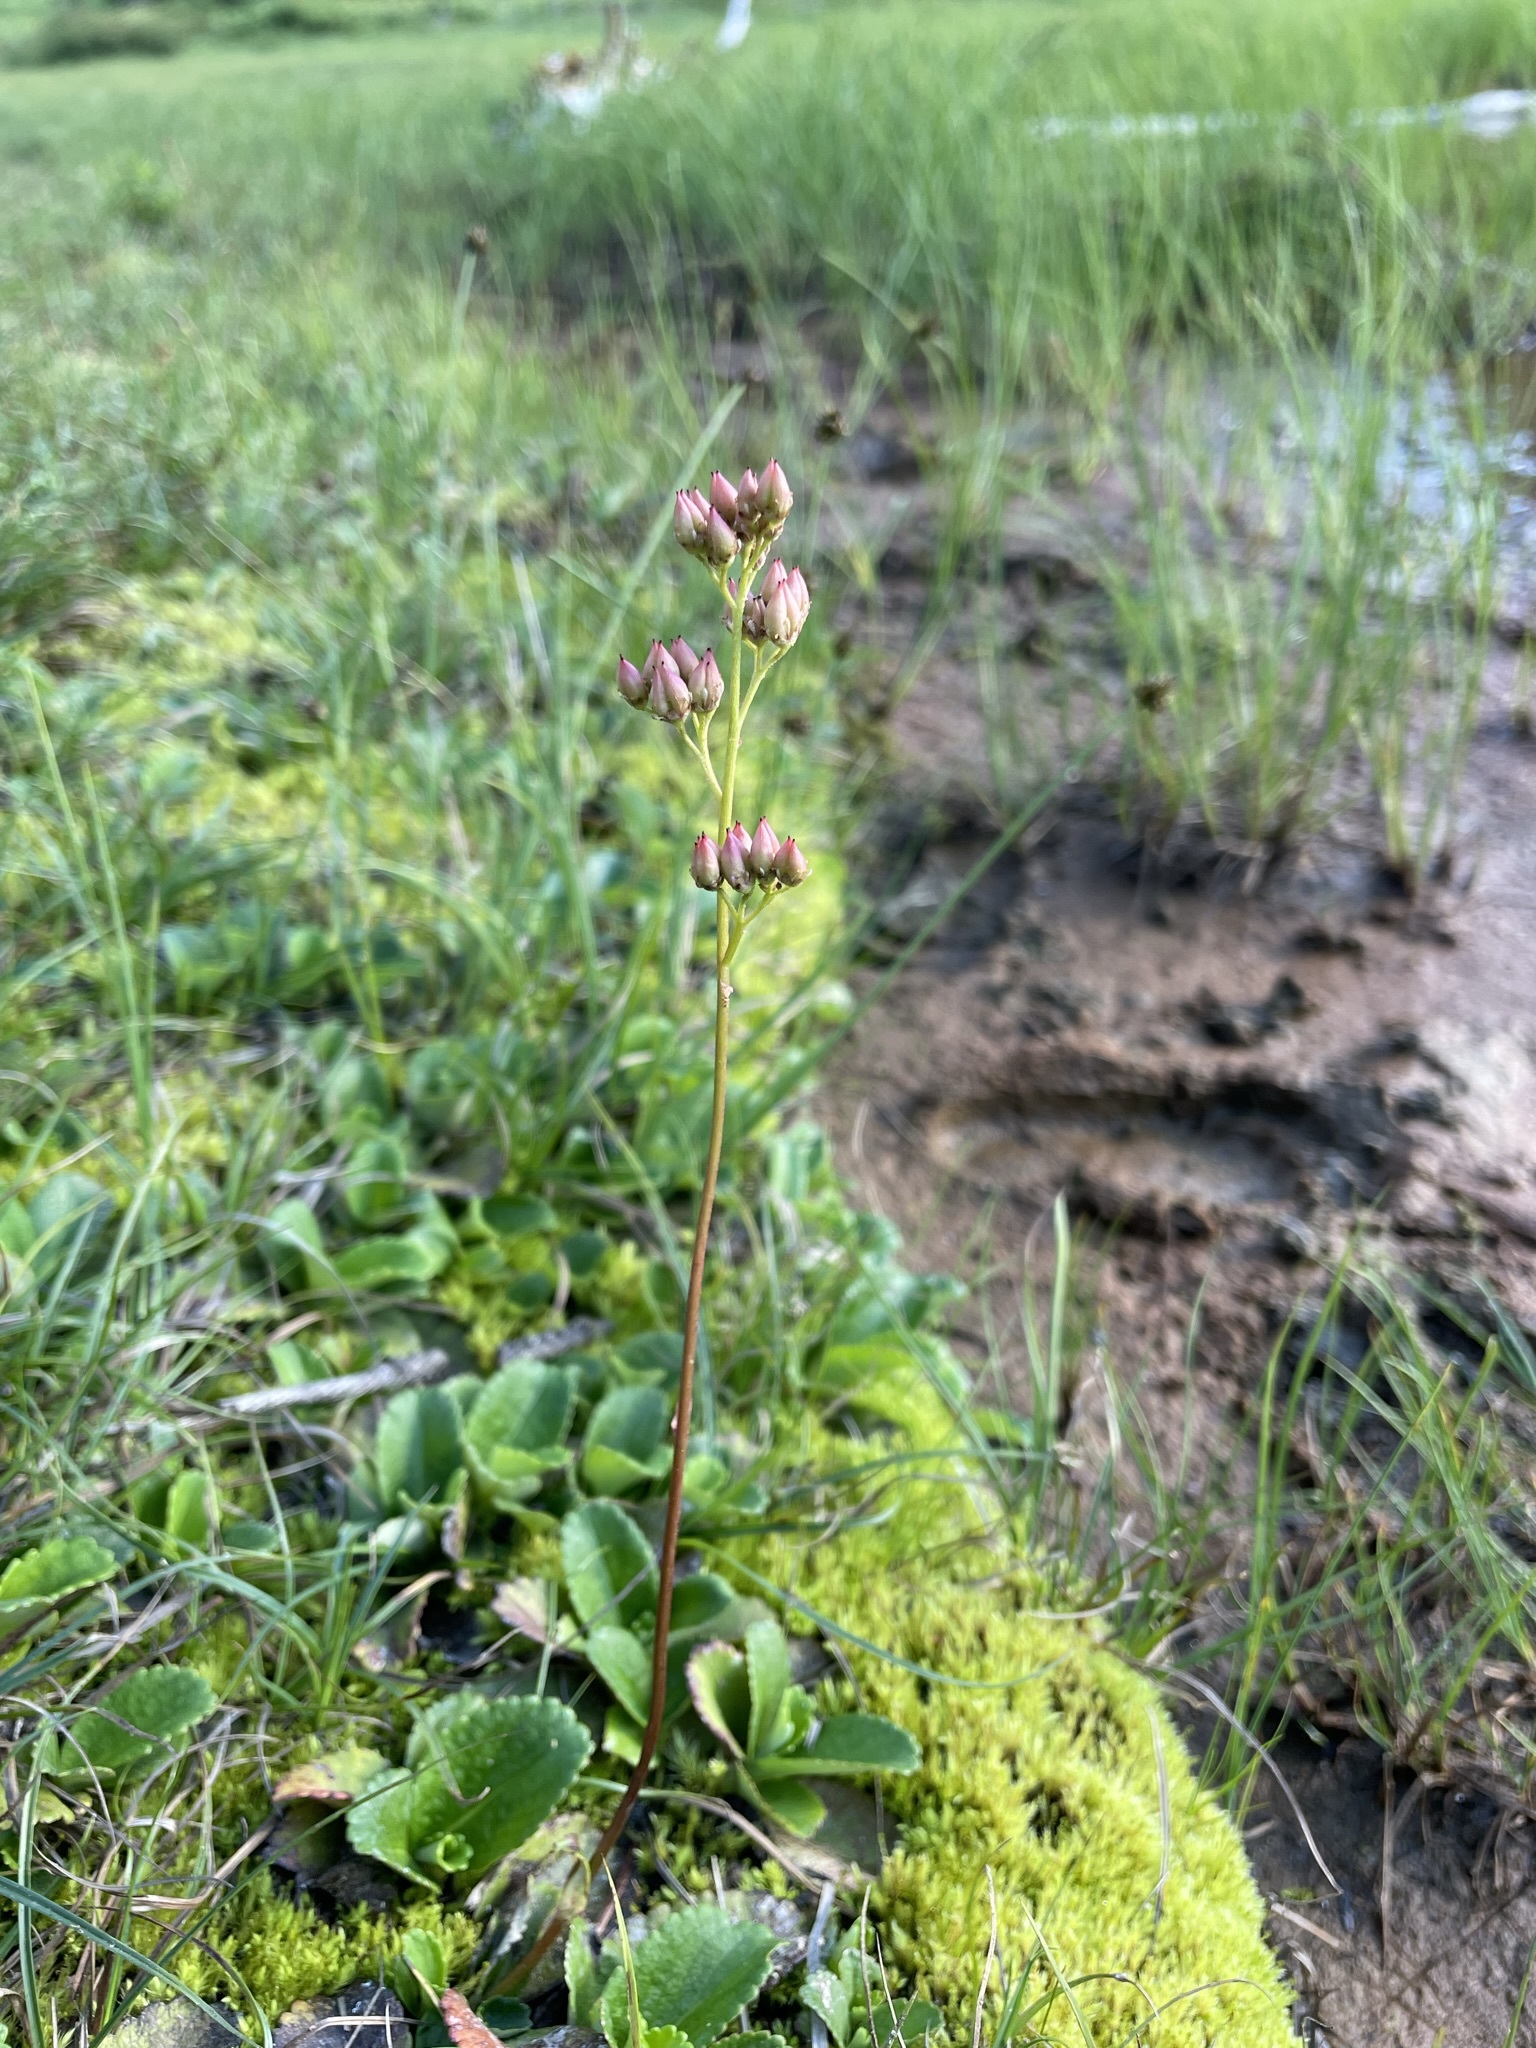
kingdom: Plantae
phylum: Tracheophyta
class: Magnoliopsida
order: Saxifragales
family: Saxifragaceae
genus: Leptarrhena
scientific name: Leptarrhena pyrolifolia
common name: Leatherleaf-saxifrage
